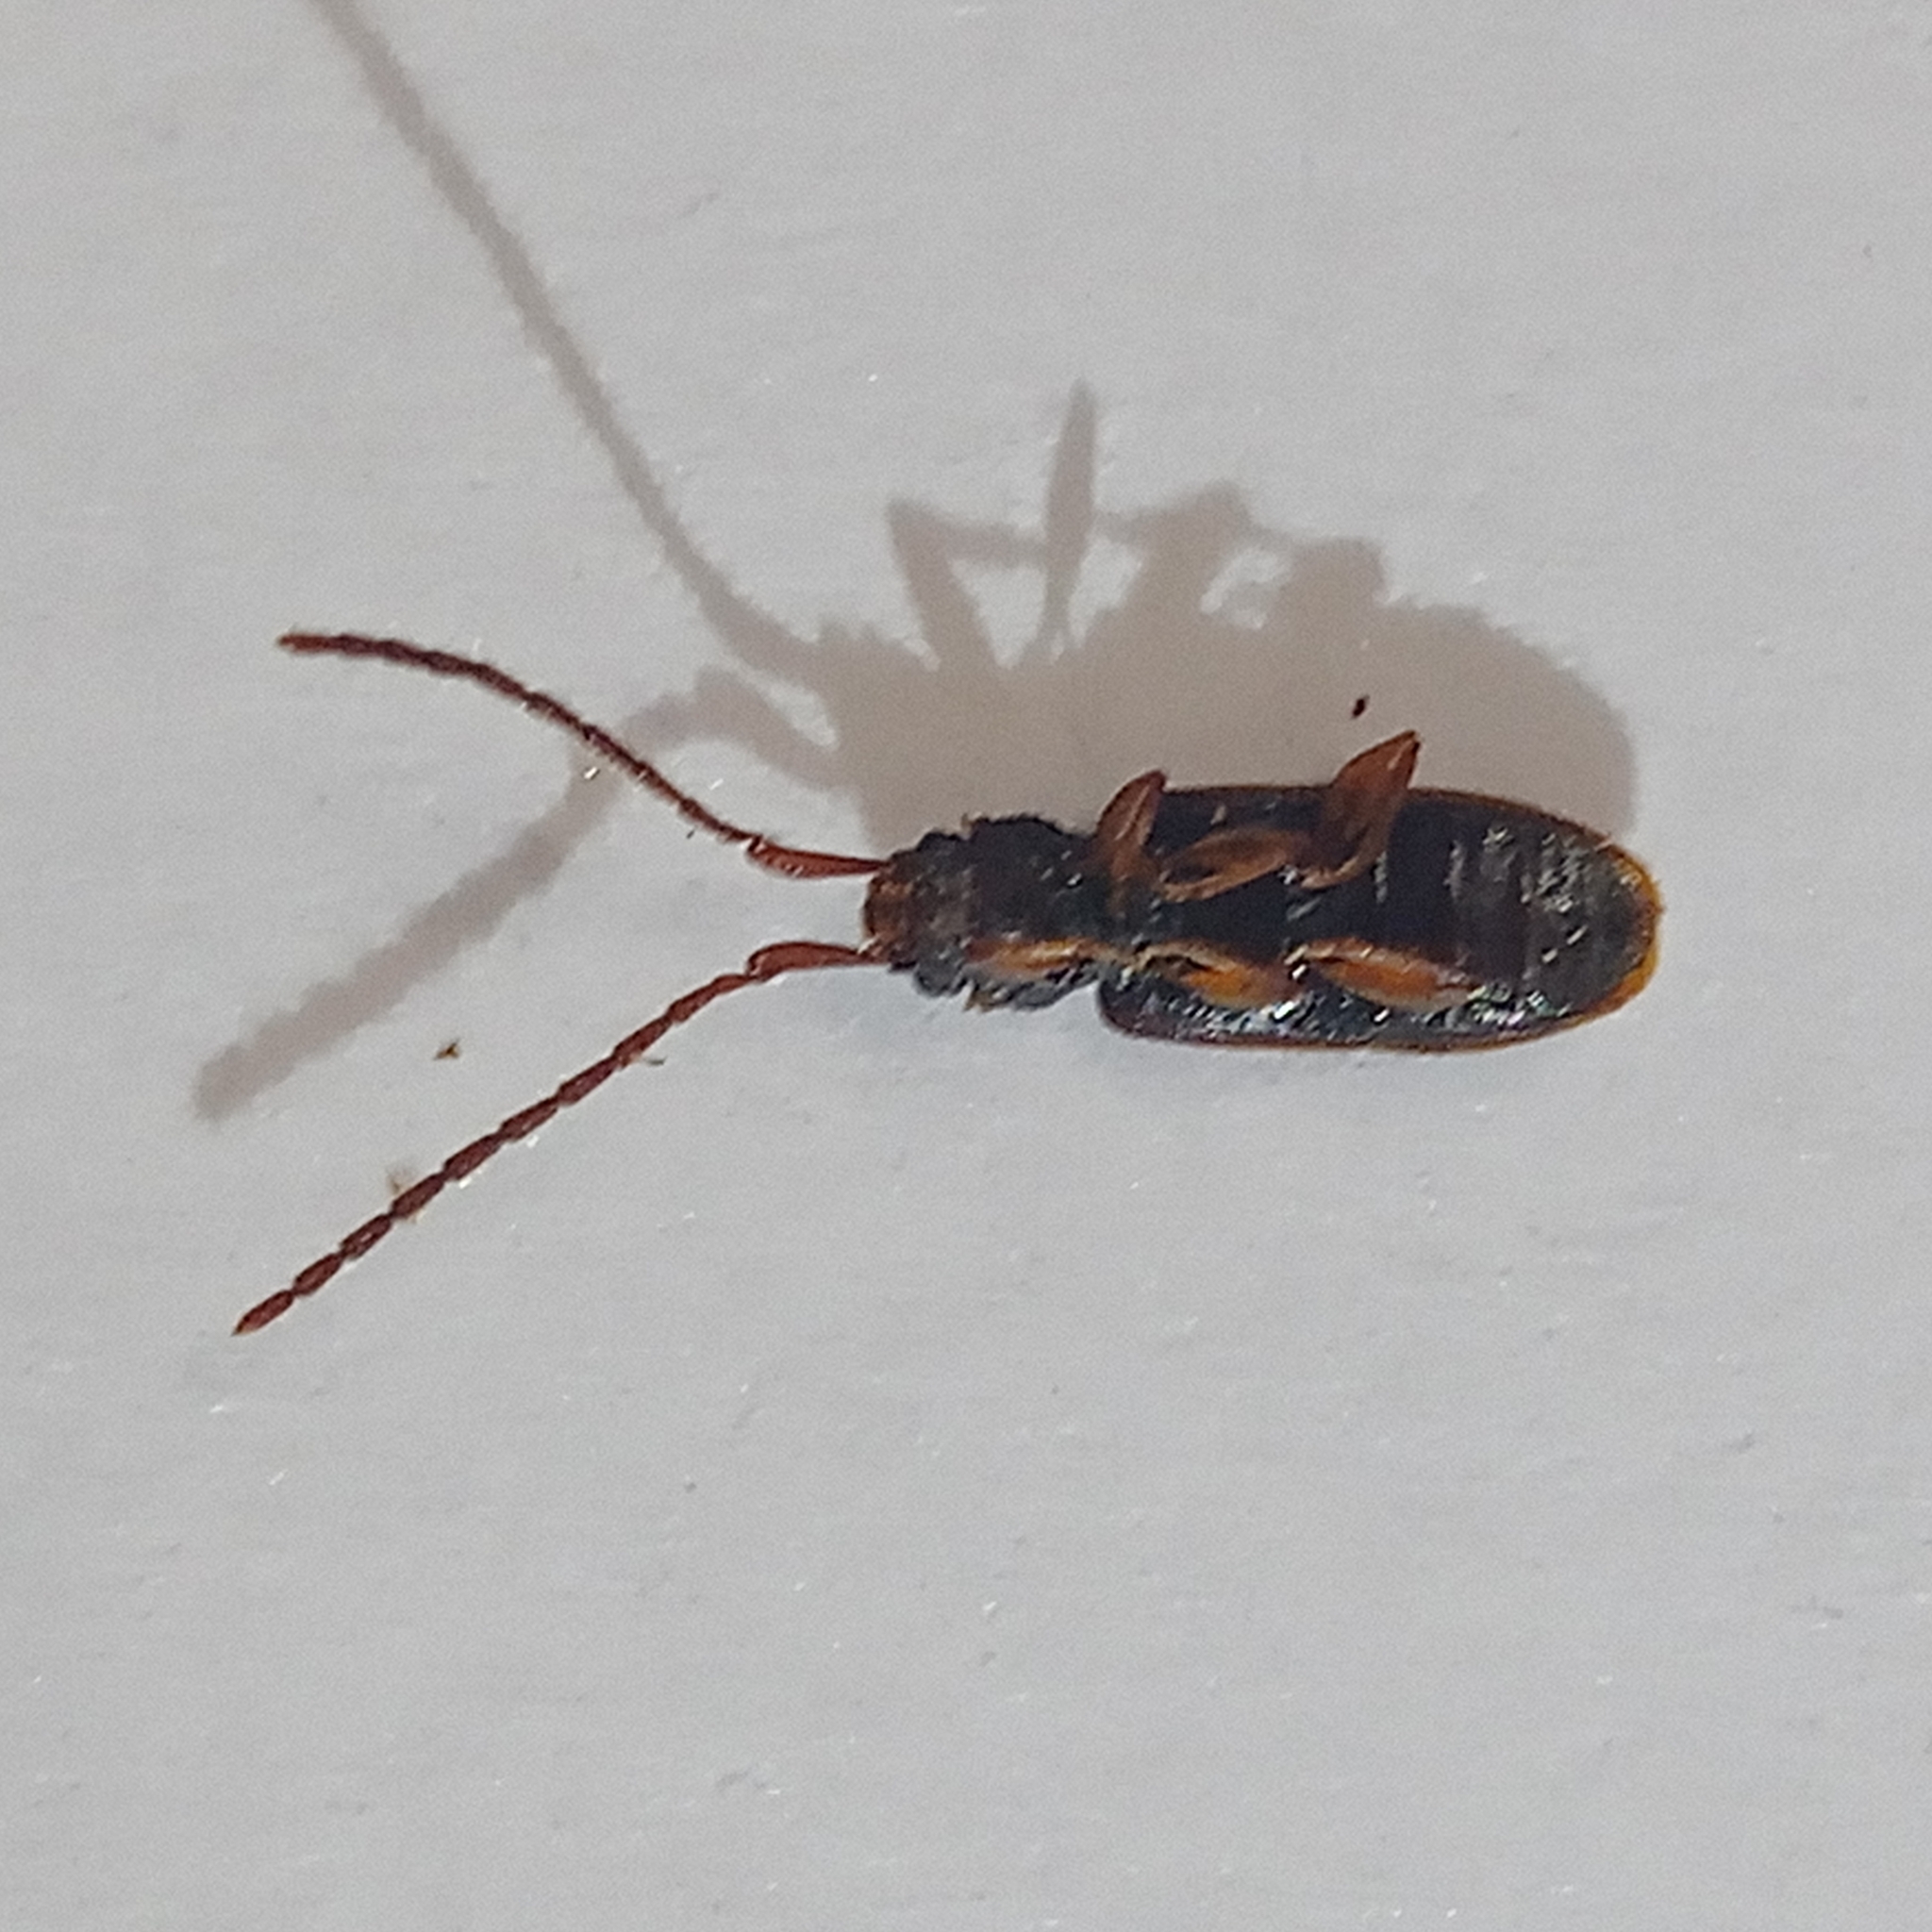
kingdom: Animalia
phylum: Arthropoda
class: Insecta
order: Coleoptera
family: Silvanidae
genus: Uleiota
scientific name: Uleiota planatus
